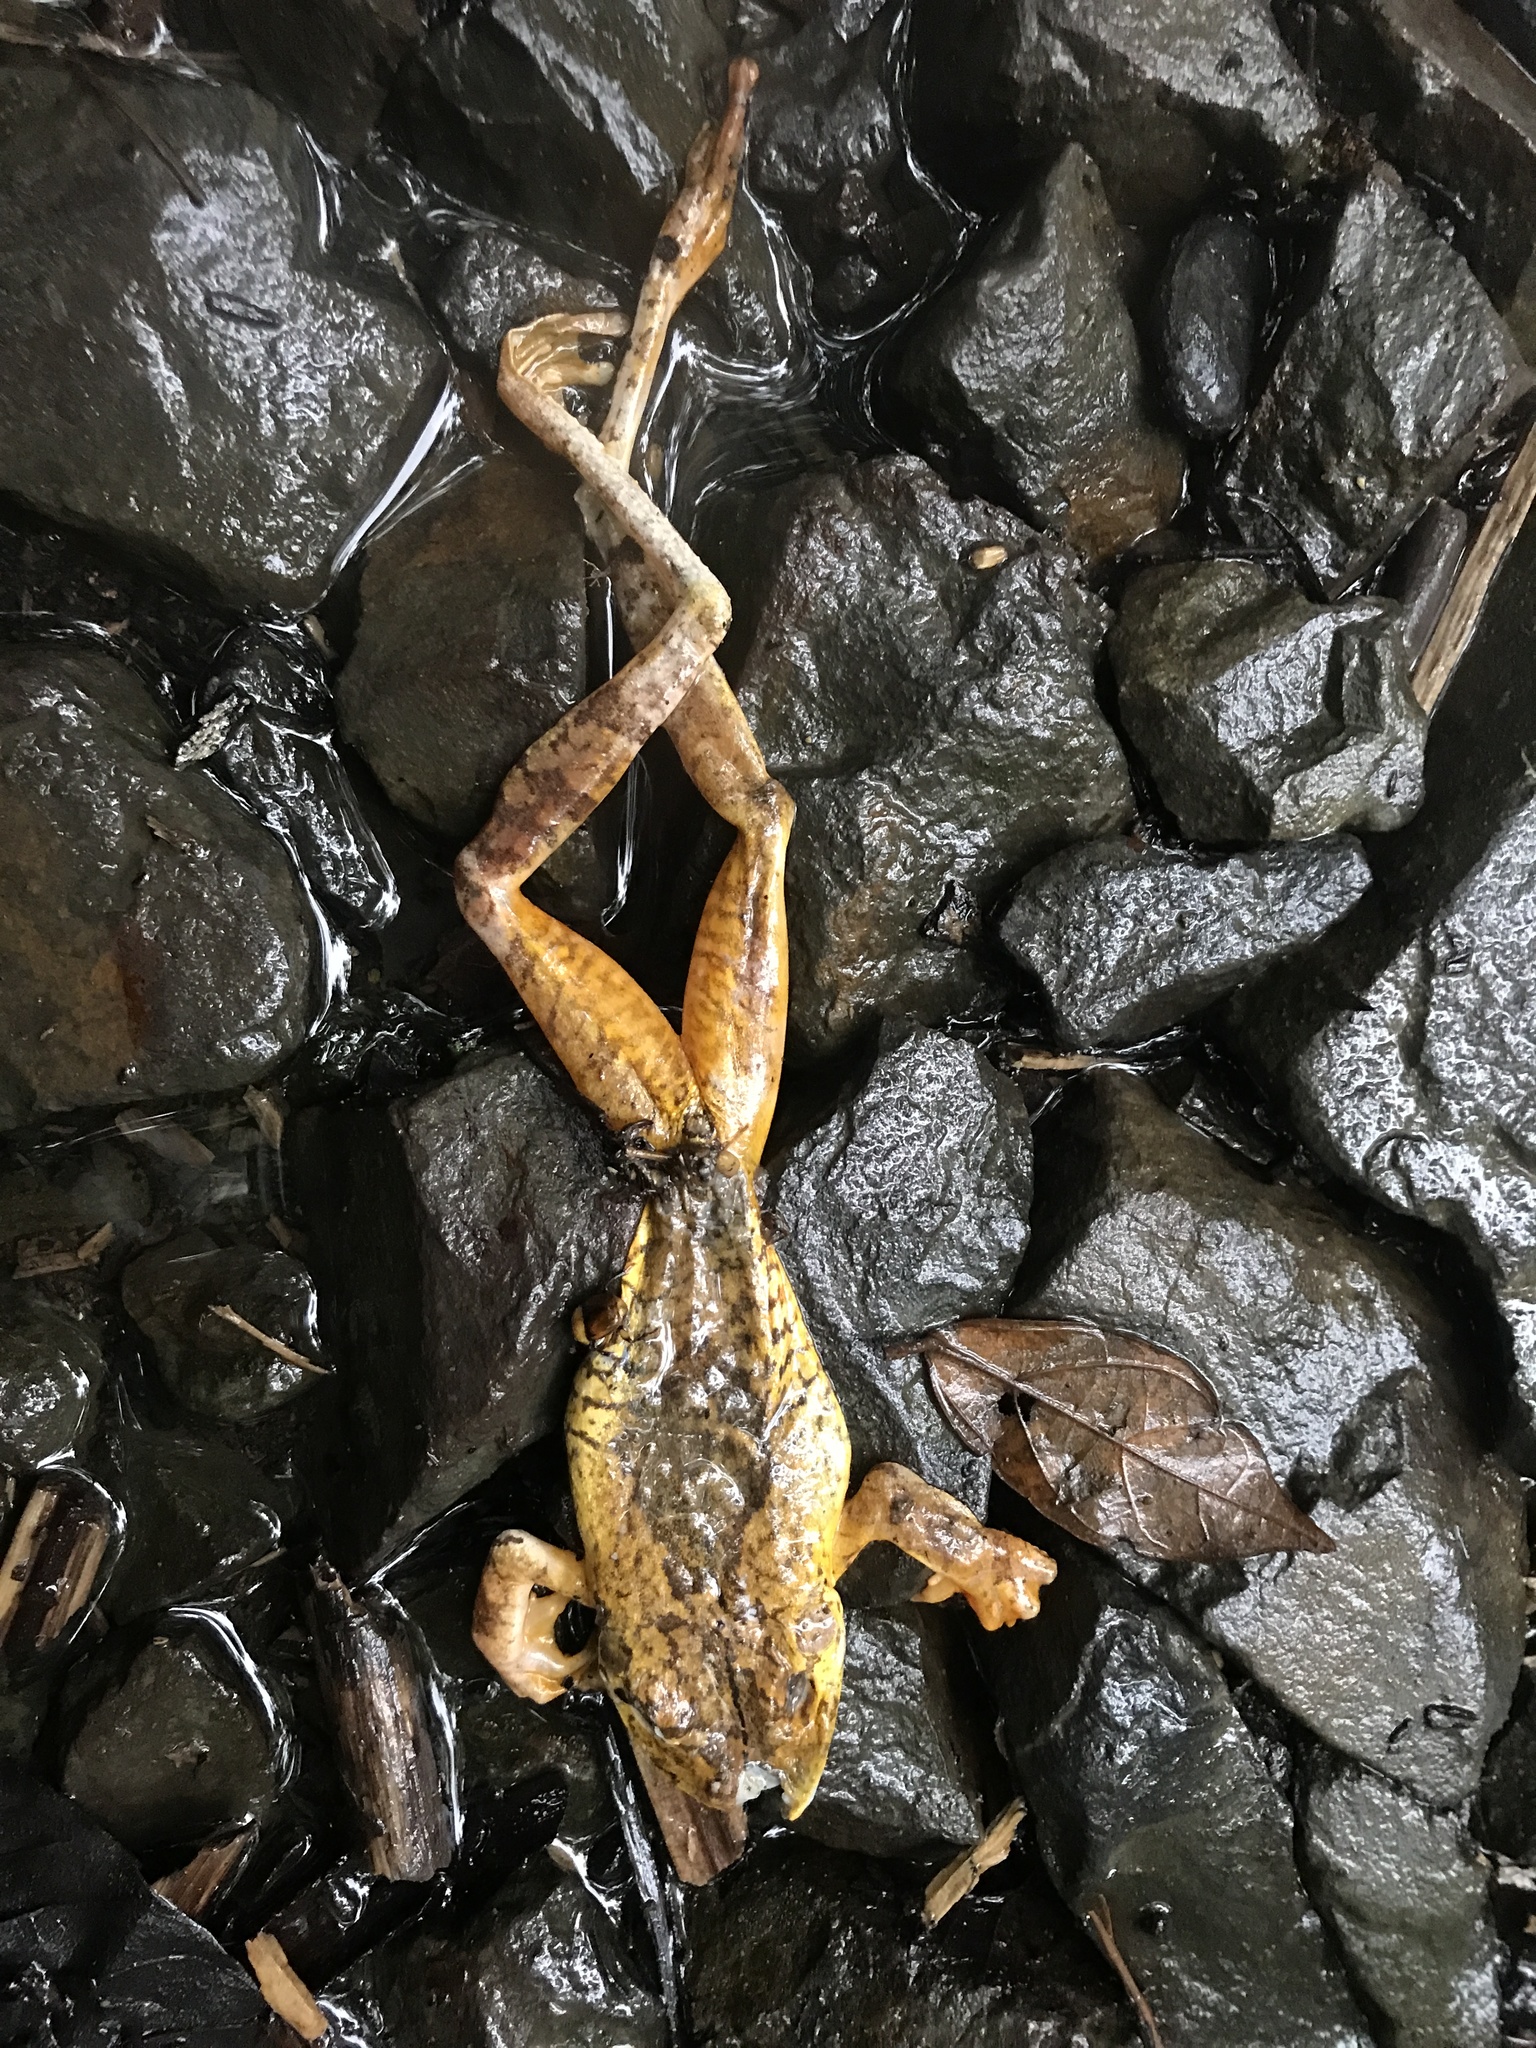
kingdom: Animalia
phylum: Chordata
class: Amphibia
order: Anura
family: Hylidae
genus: Boana
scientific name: Boana rosenbergi
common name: Rosenberg´s gladiator treefrog
